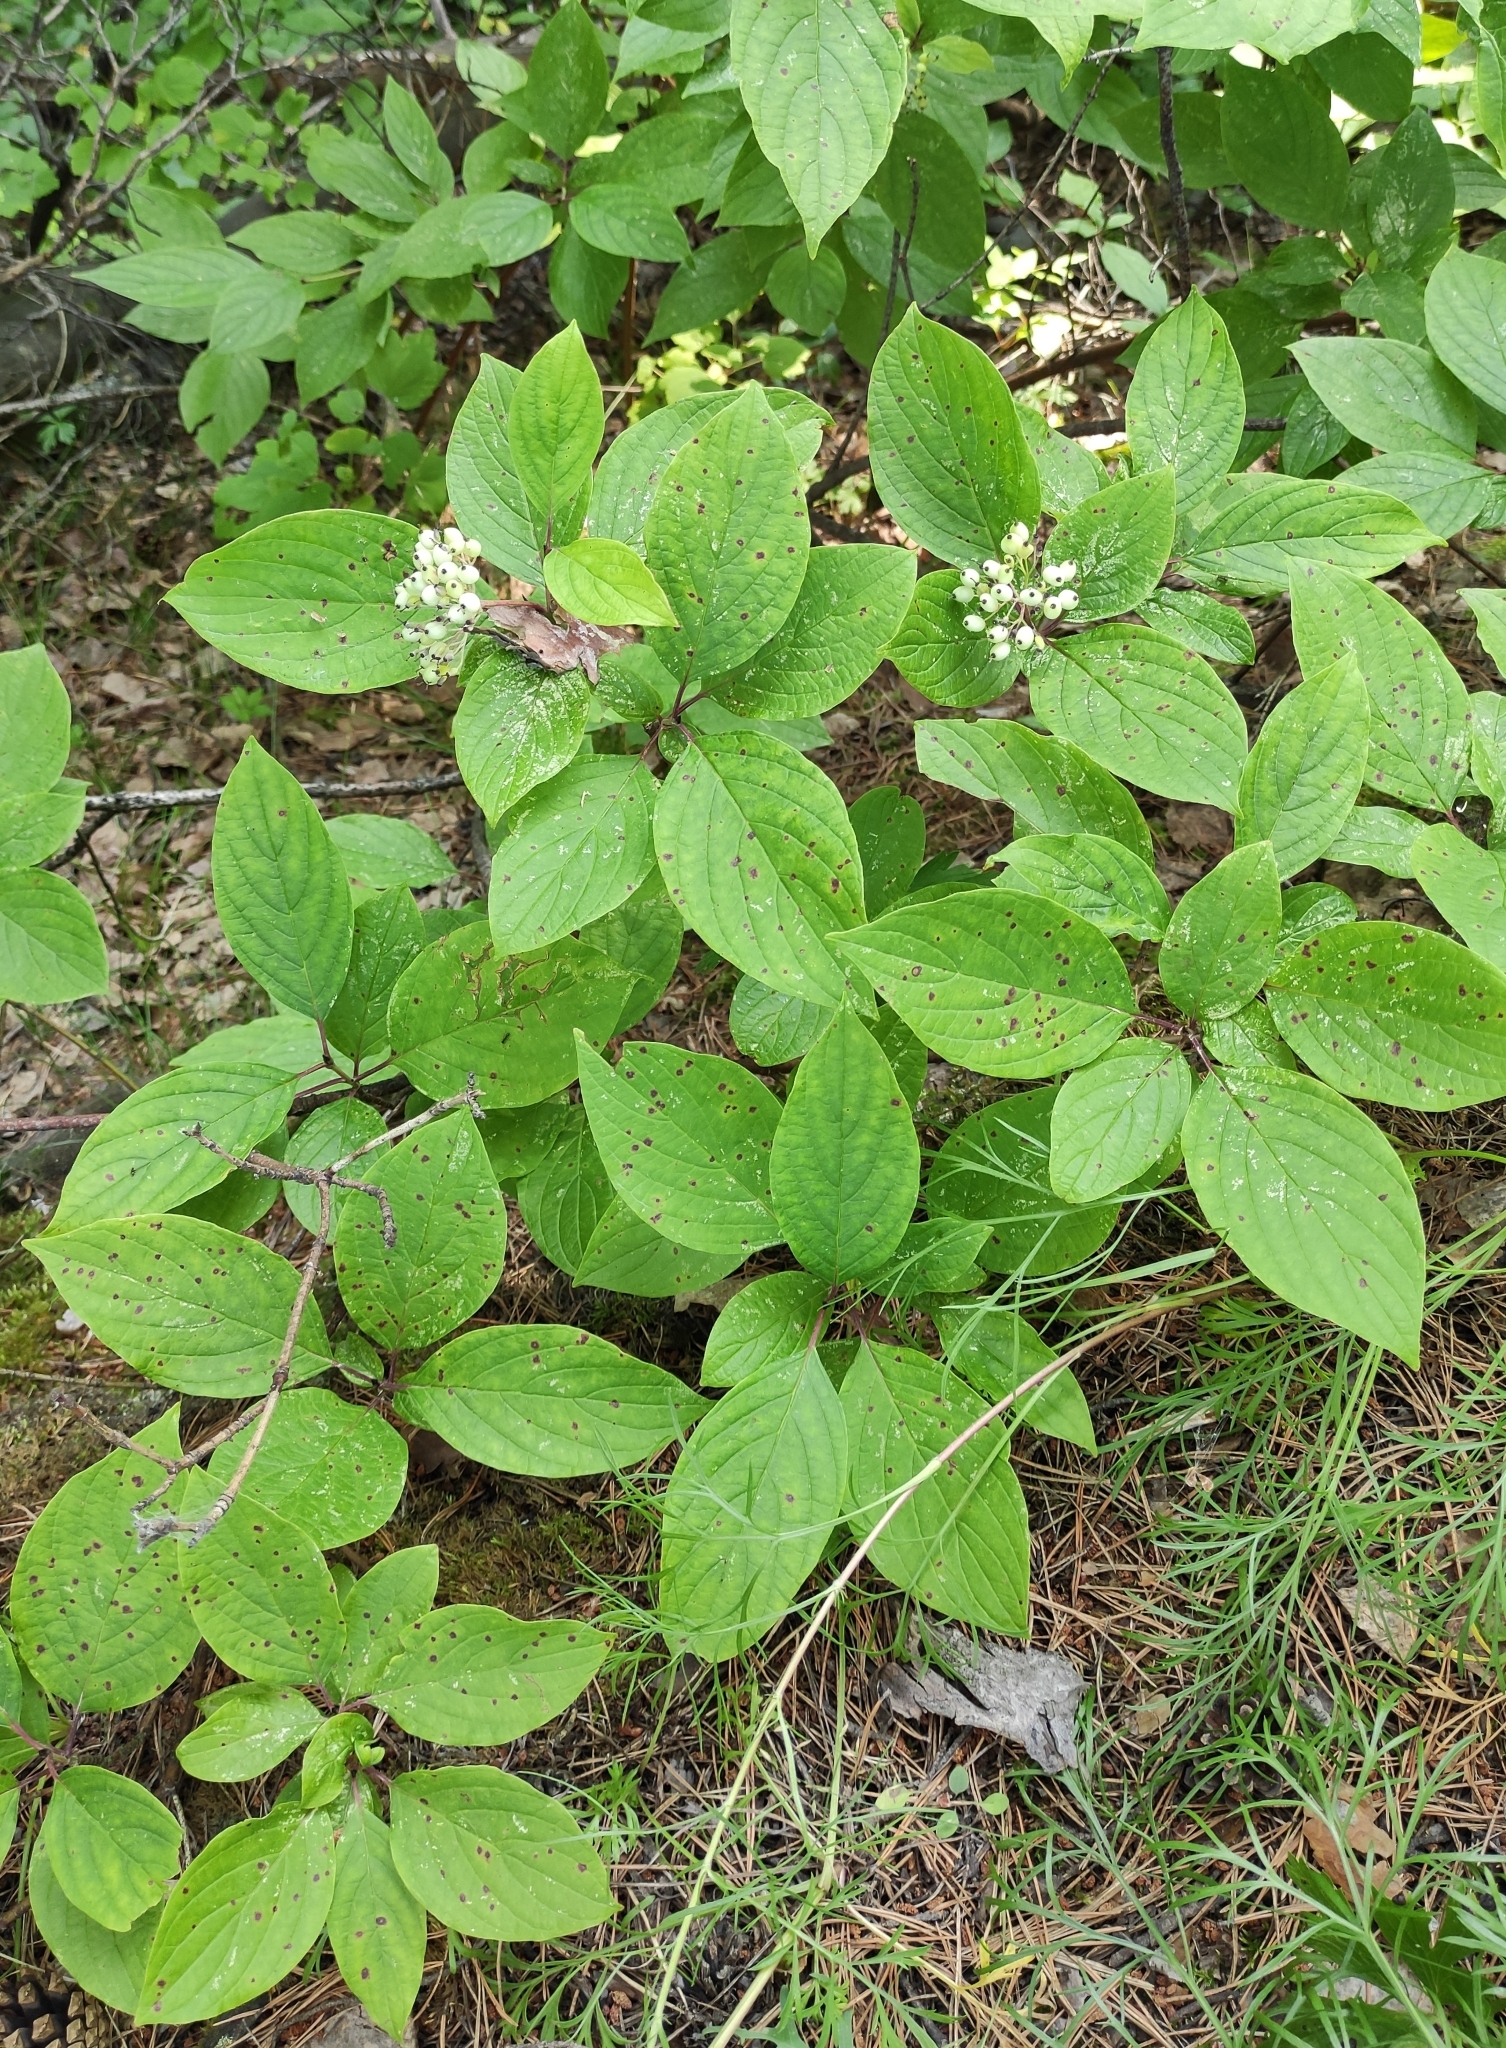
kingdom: Plantae
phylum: Tracheophyta
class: Magnoliopsida
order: Cornales
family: Cornaceae
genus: Cornus
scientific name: Cornus alba
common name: White dogwood
